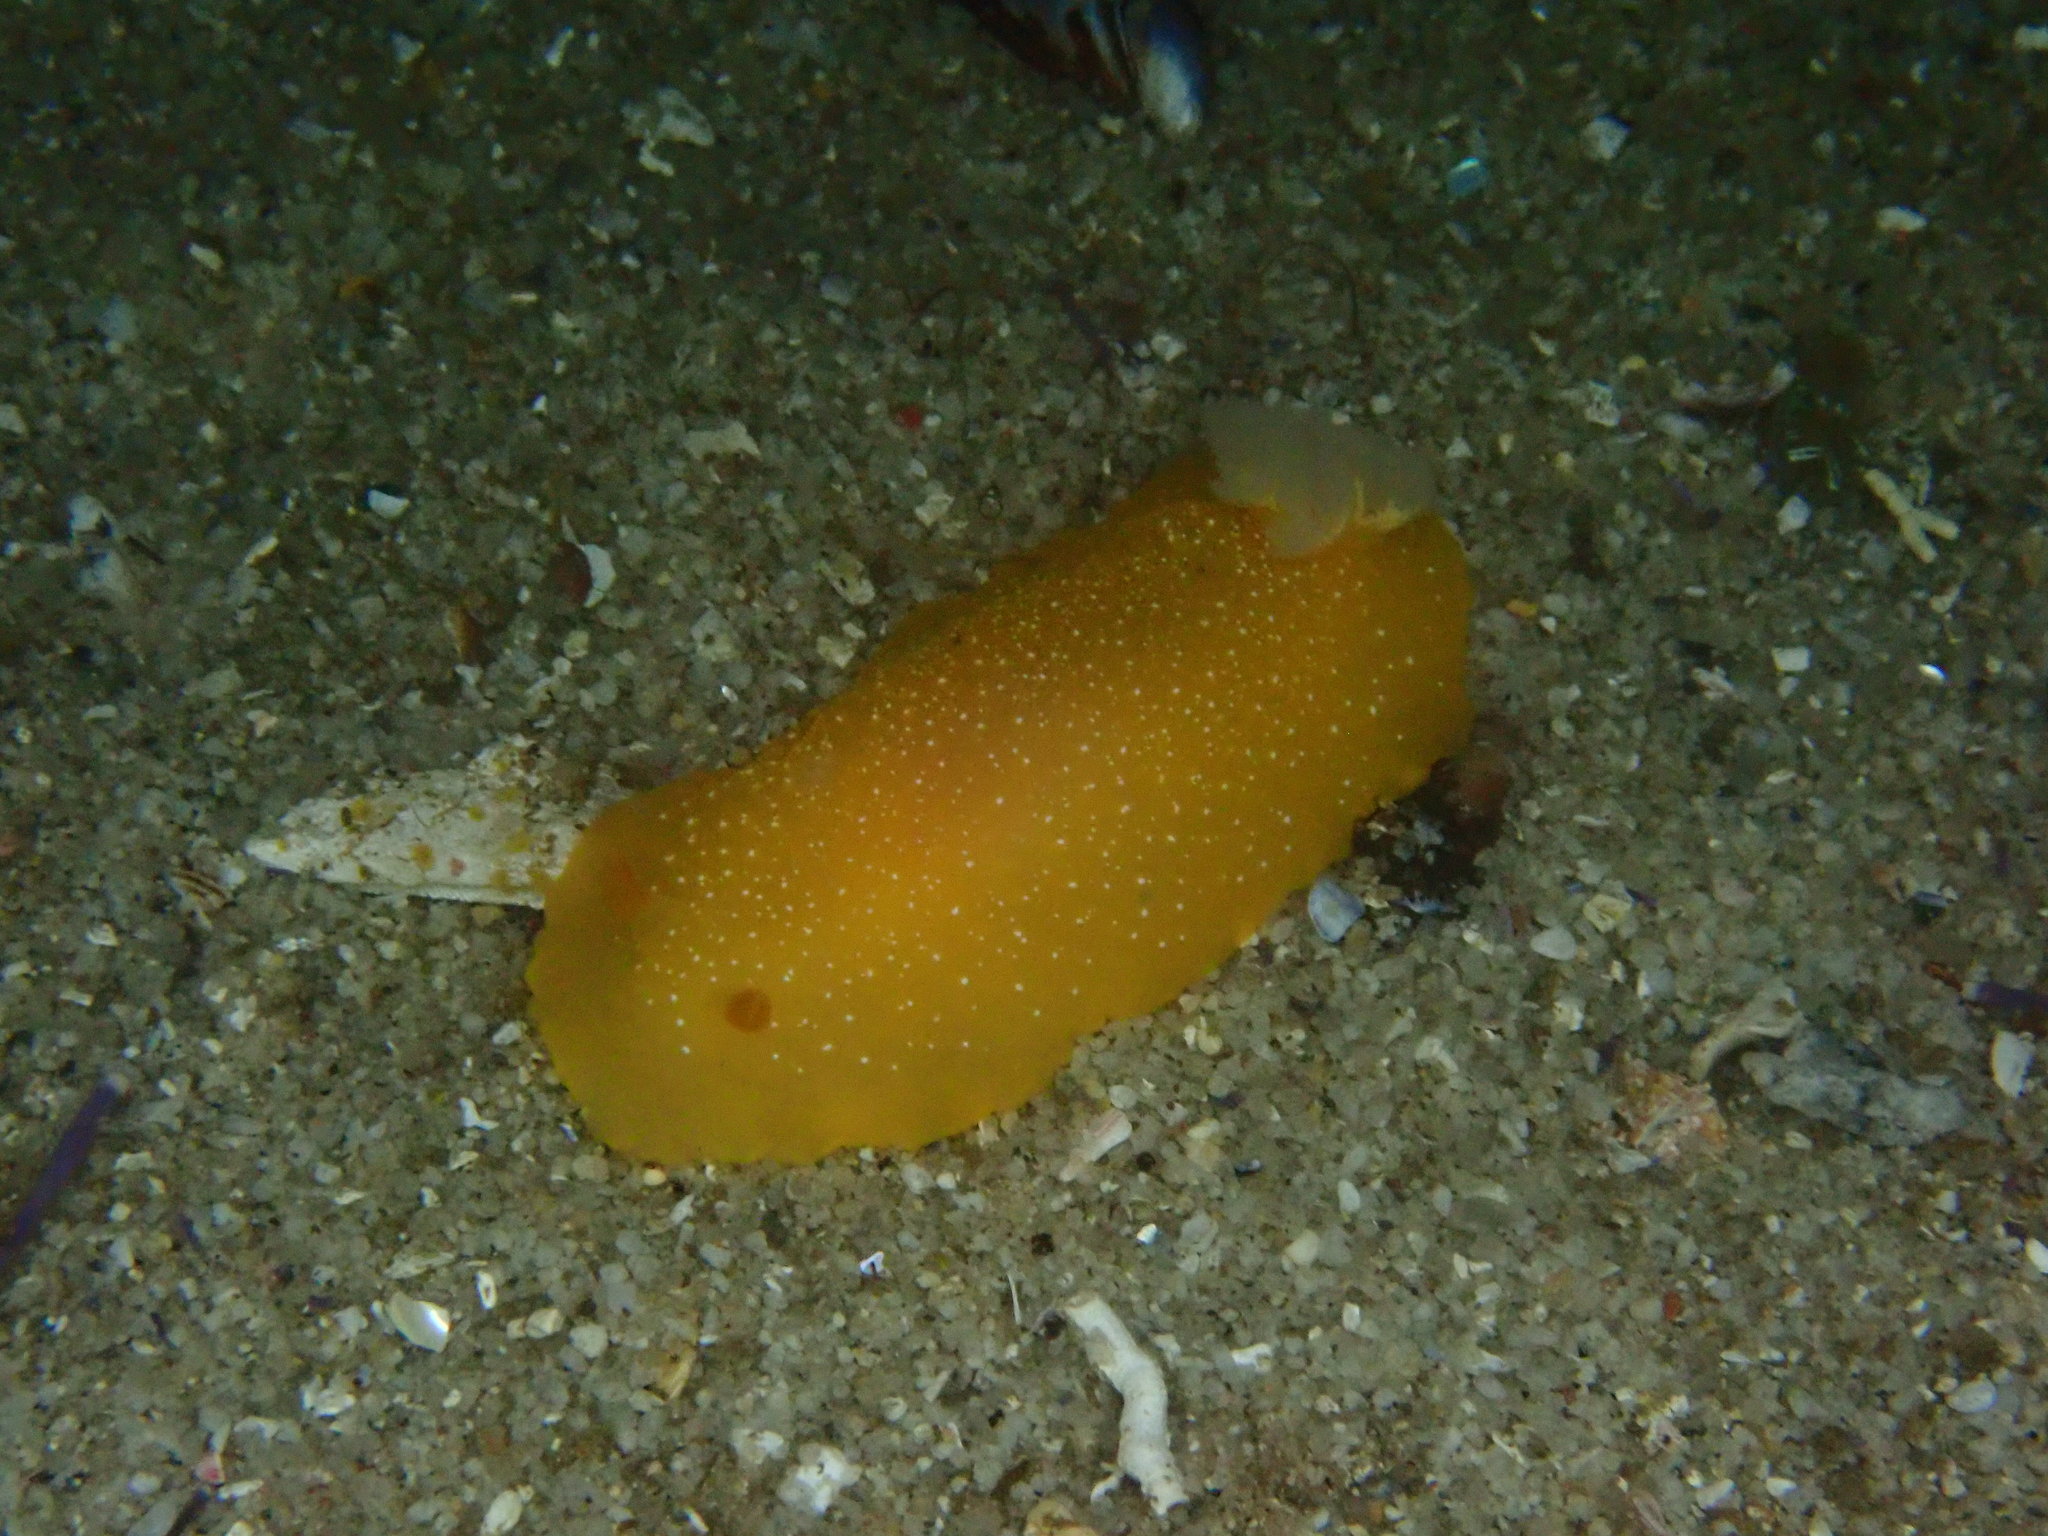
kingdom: Animalia
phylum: Mollusca
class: Gastropoda
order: Nudibranchia
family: Dendrodorididae
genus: Doriopsilla
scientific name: Doriopsilla fulva
